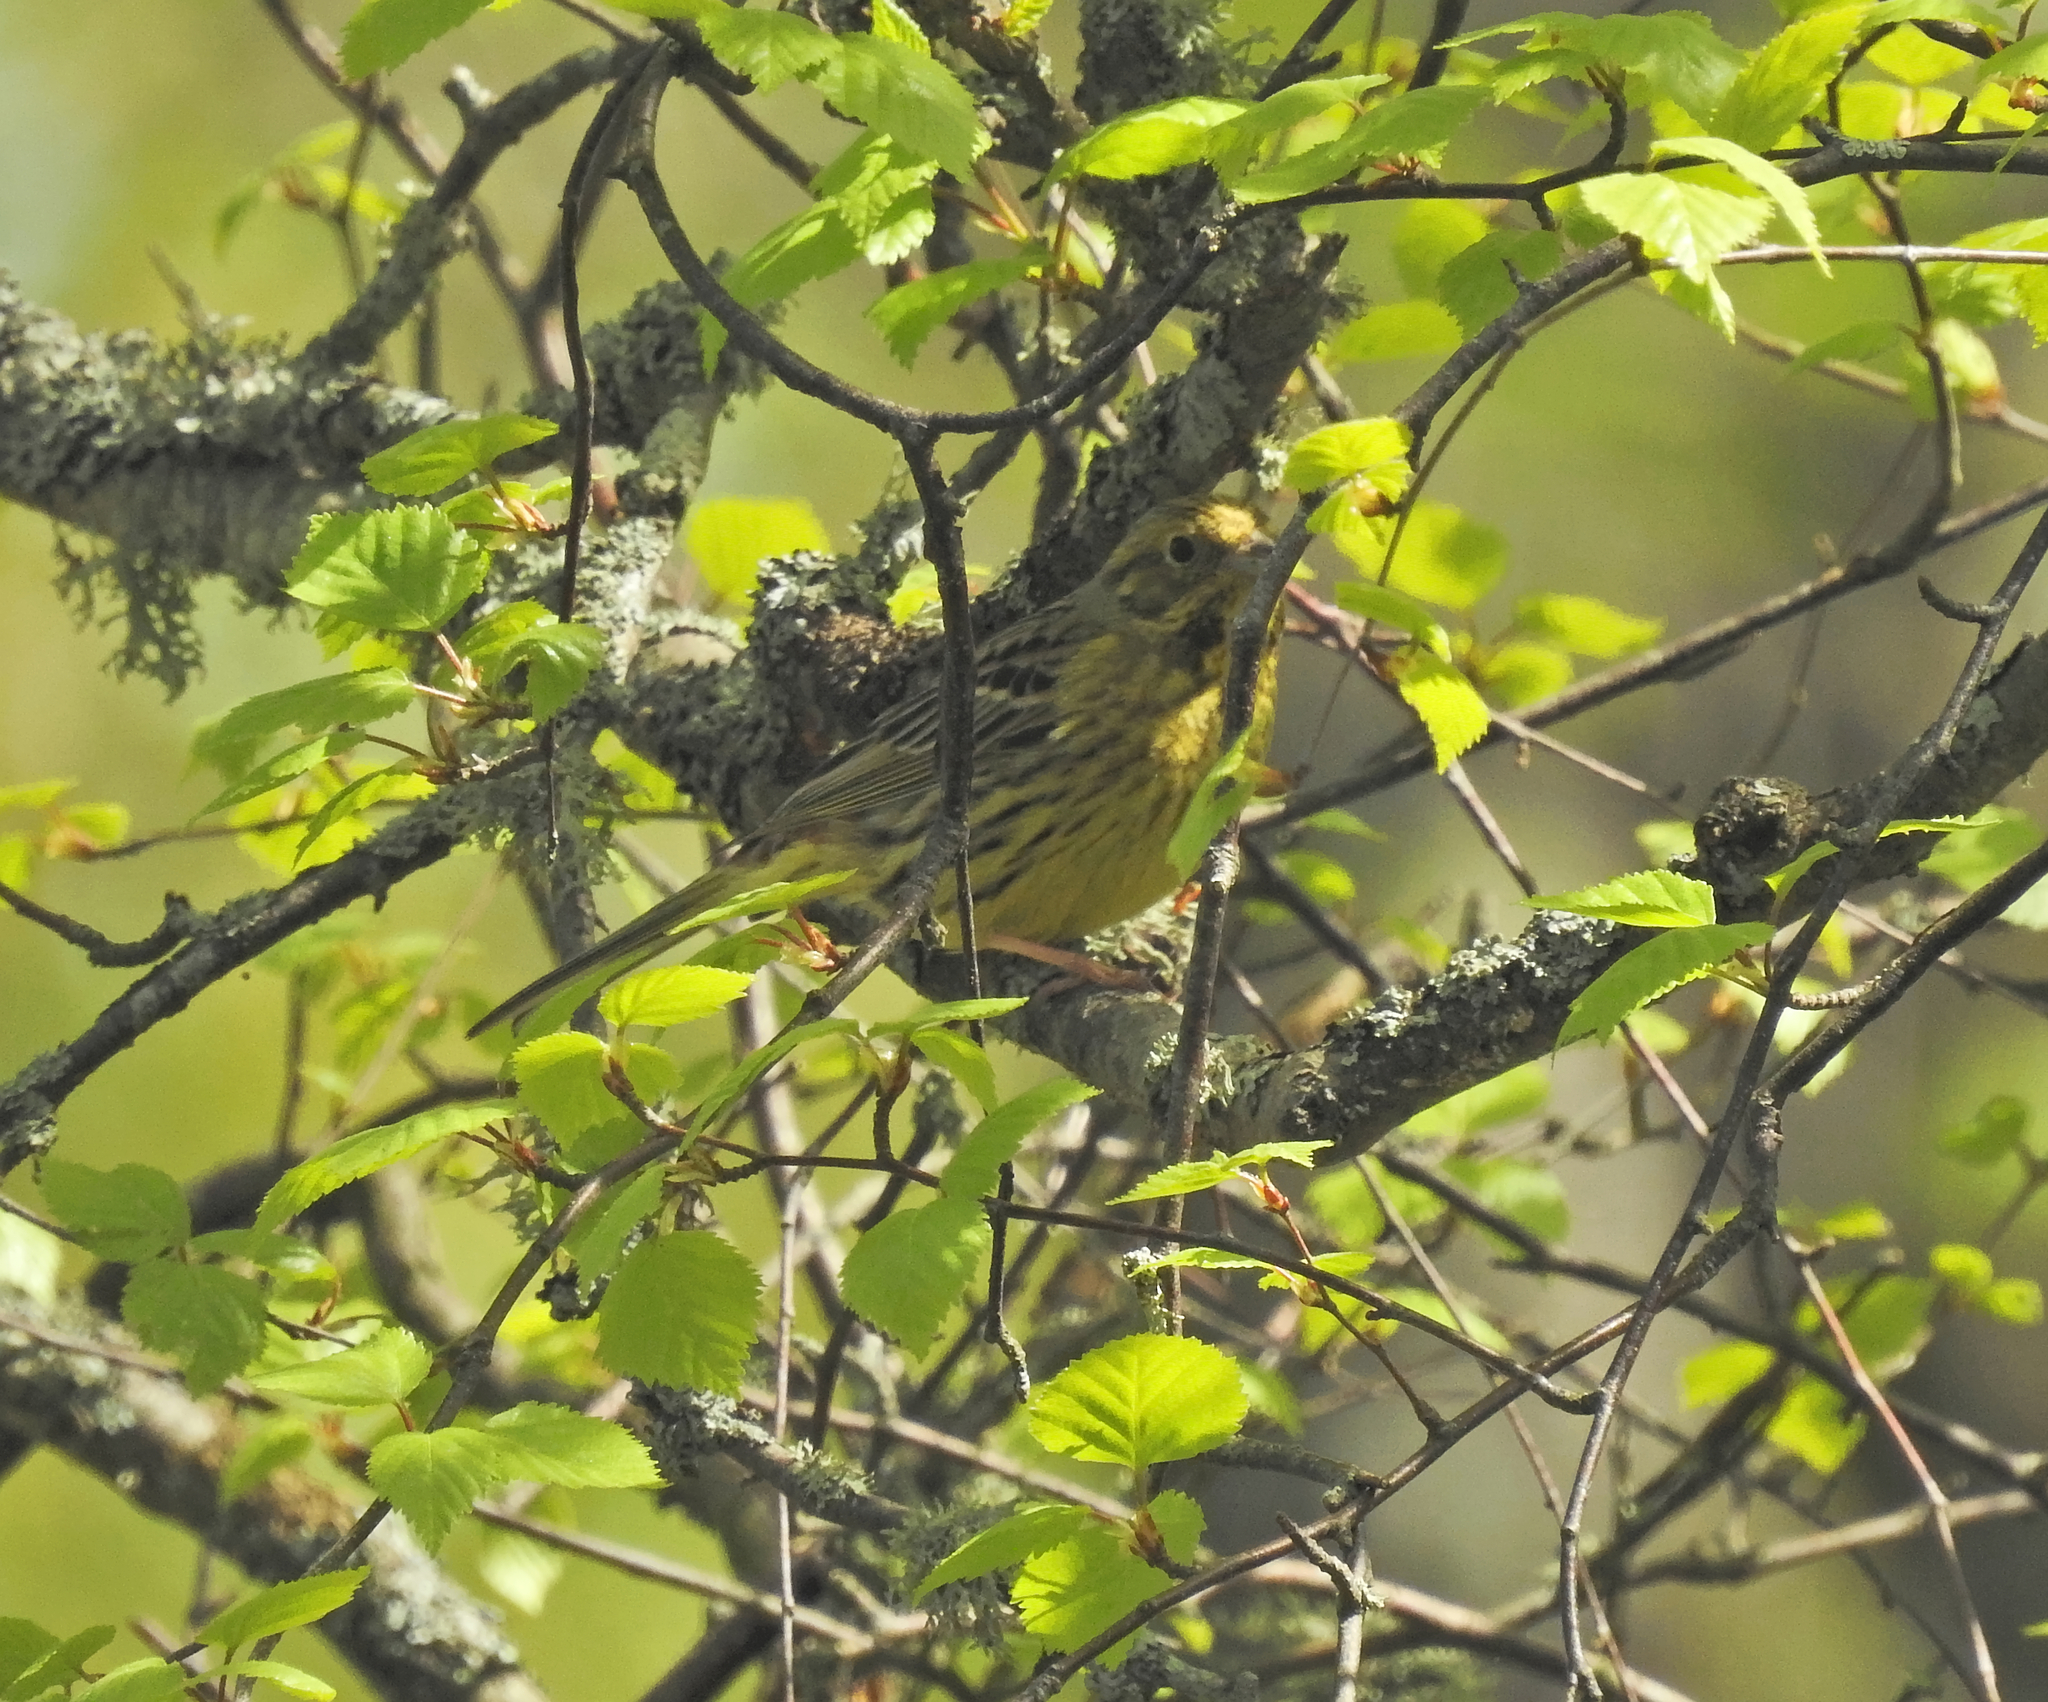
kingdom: Animalia
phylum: Chordata
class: Aves
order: Passeriformes
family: Emberizidae
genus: Emberiza
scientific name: Emberiza citrinella
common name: Yellowhammer
